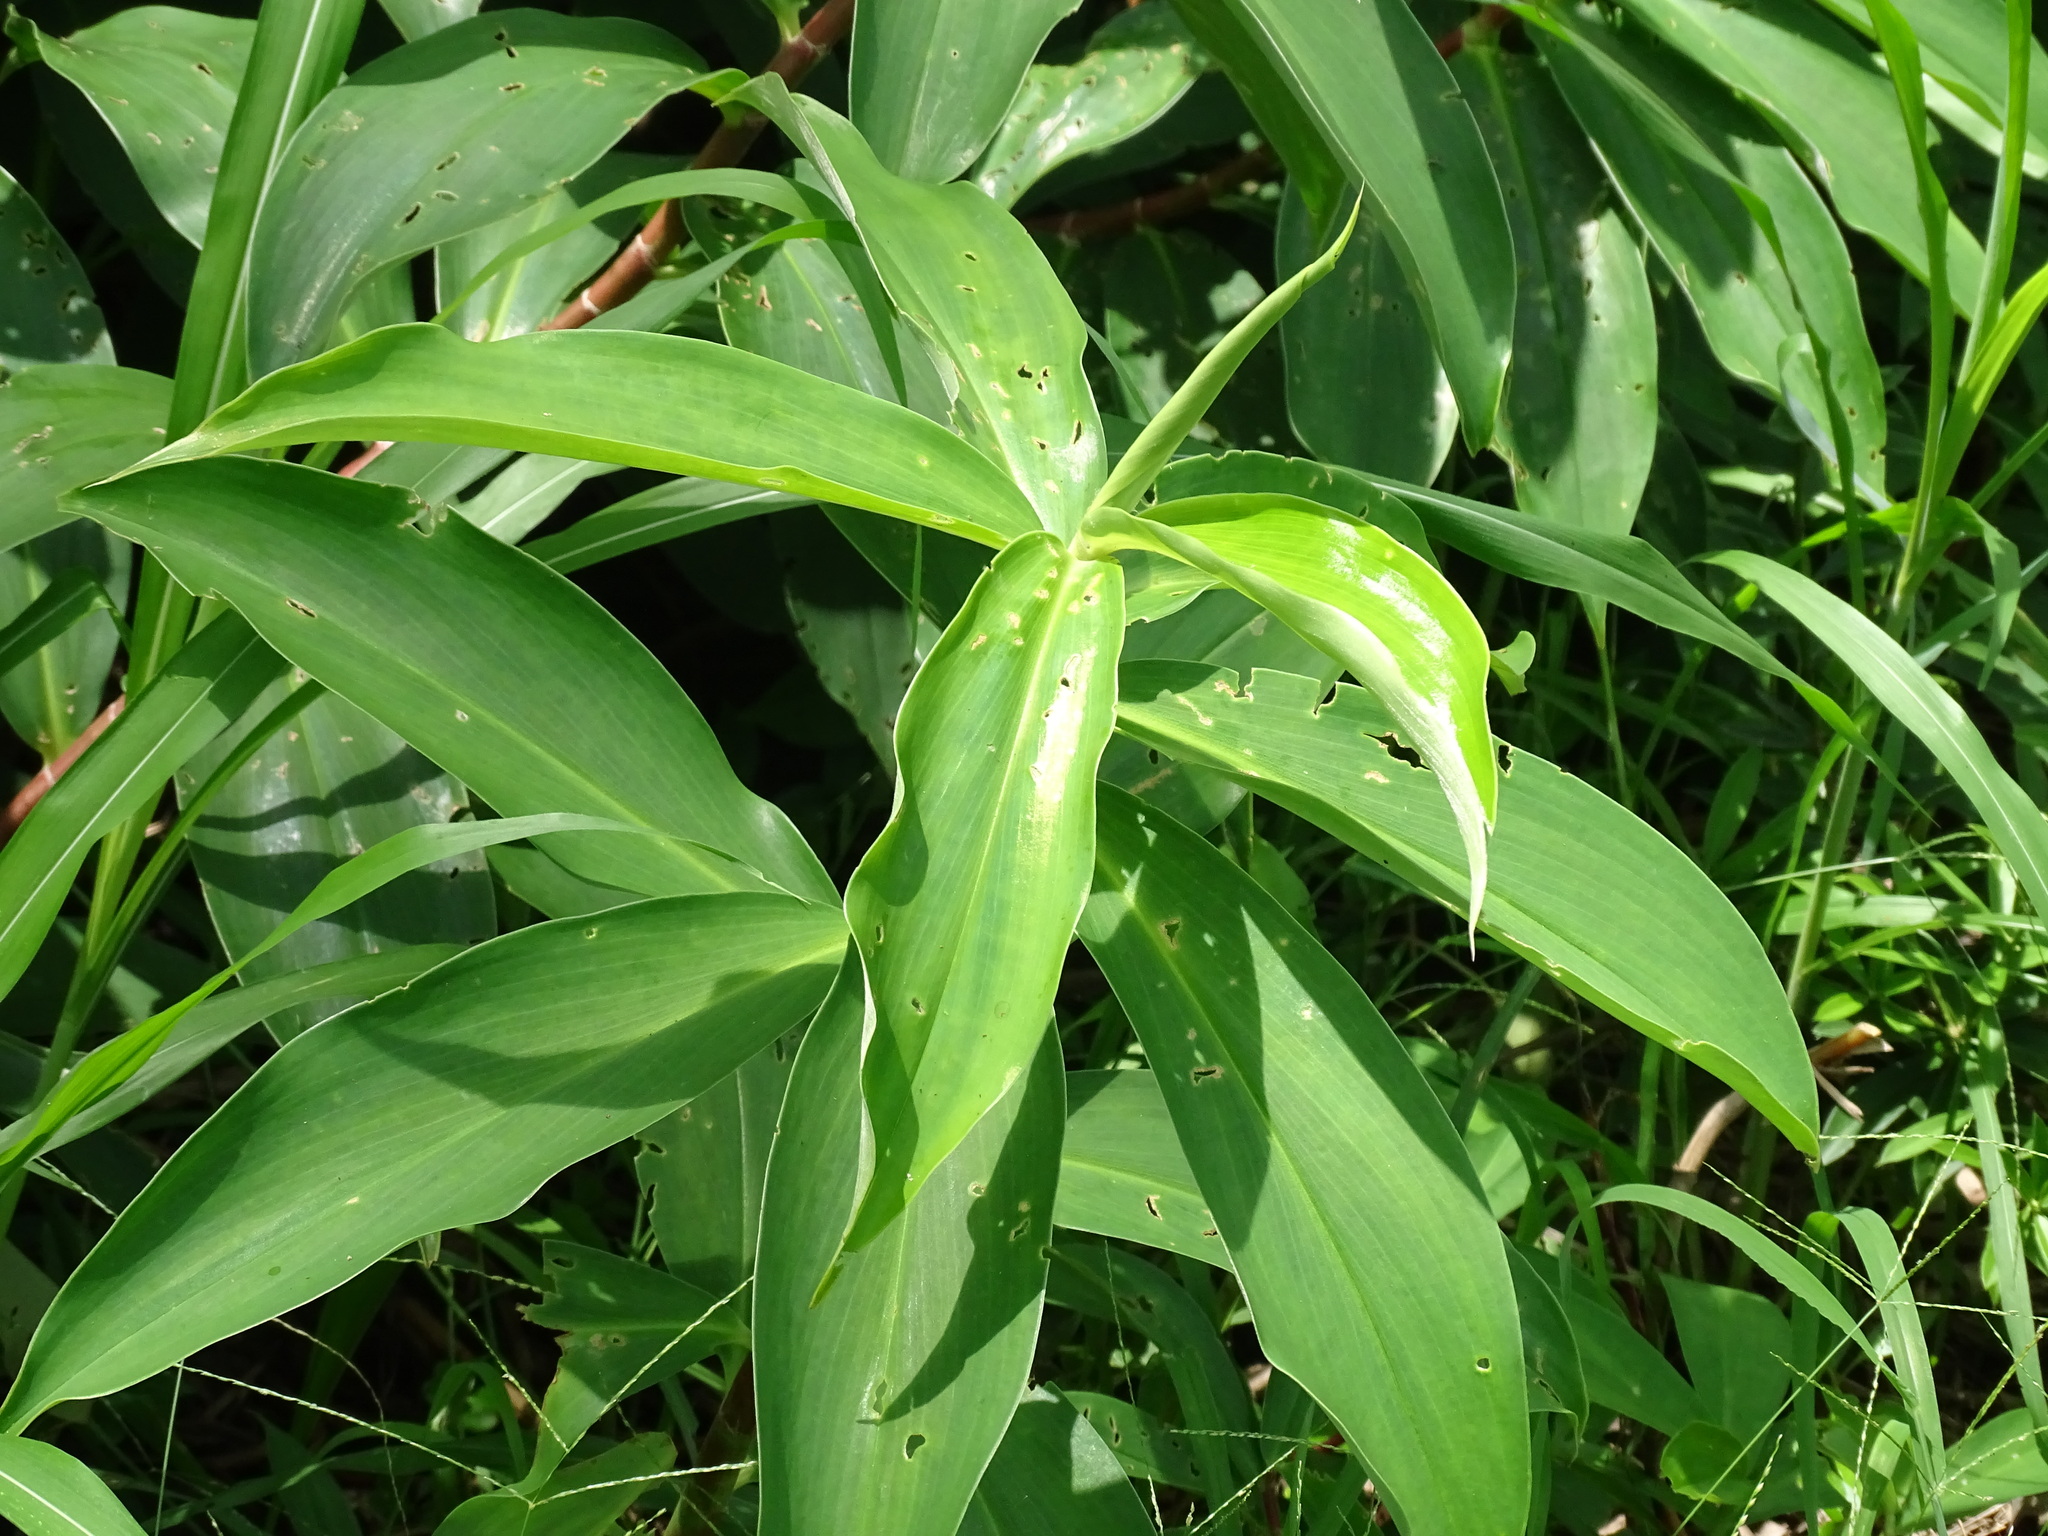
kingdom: Plantae
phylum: Tracheophyta
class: Liliopsida
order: Zingiberales
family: Costaceae
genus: Costus
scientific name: Costus pictus
